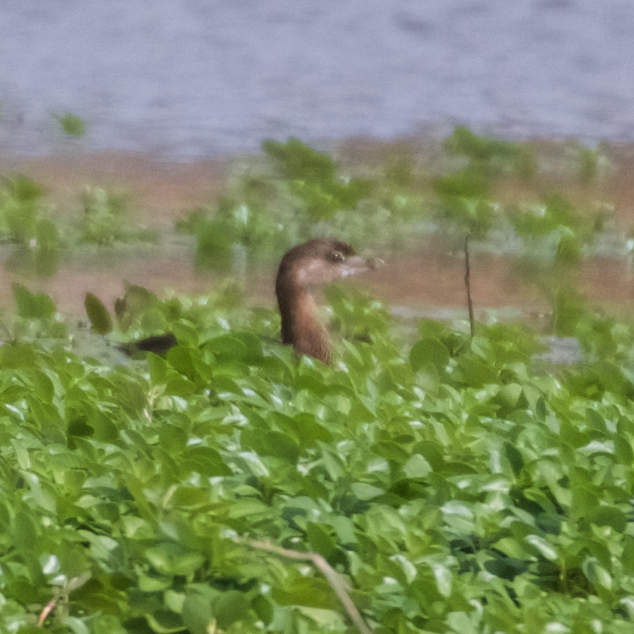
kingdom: Animalia
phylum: Chordata
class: Aves
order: Podicipediformes
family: Podicipedidae
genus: Podilymbus
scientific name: Podilymbus podiceps
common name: Pied-billed grebe
